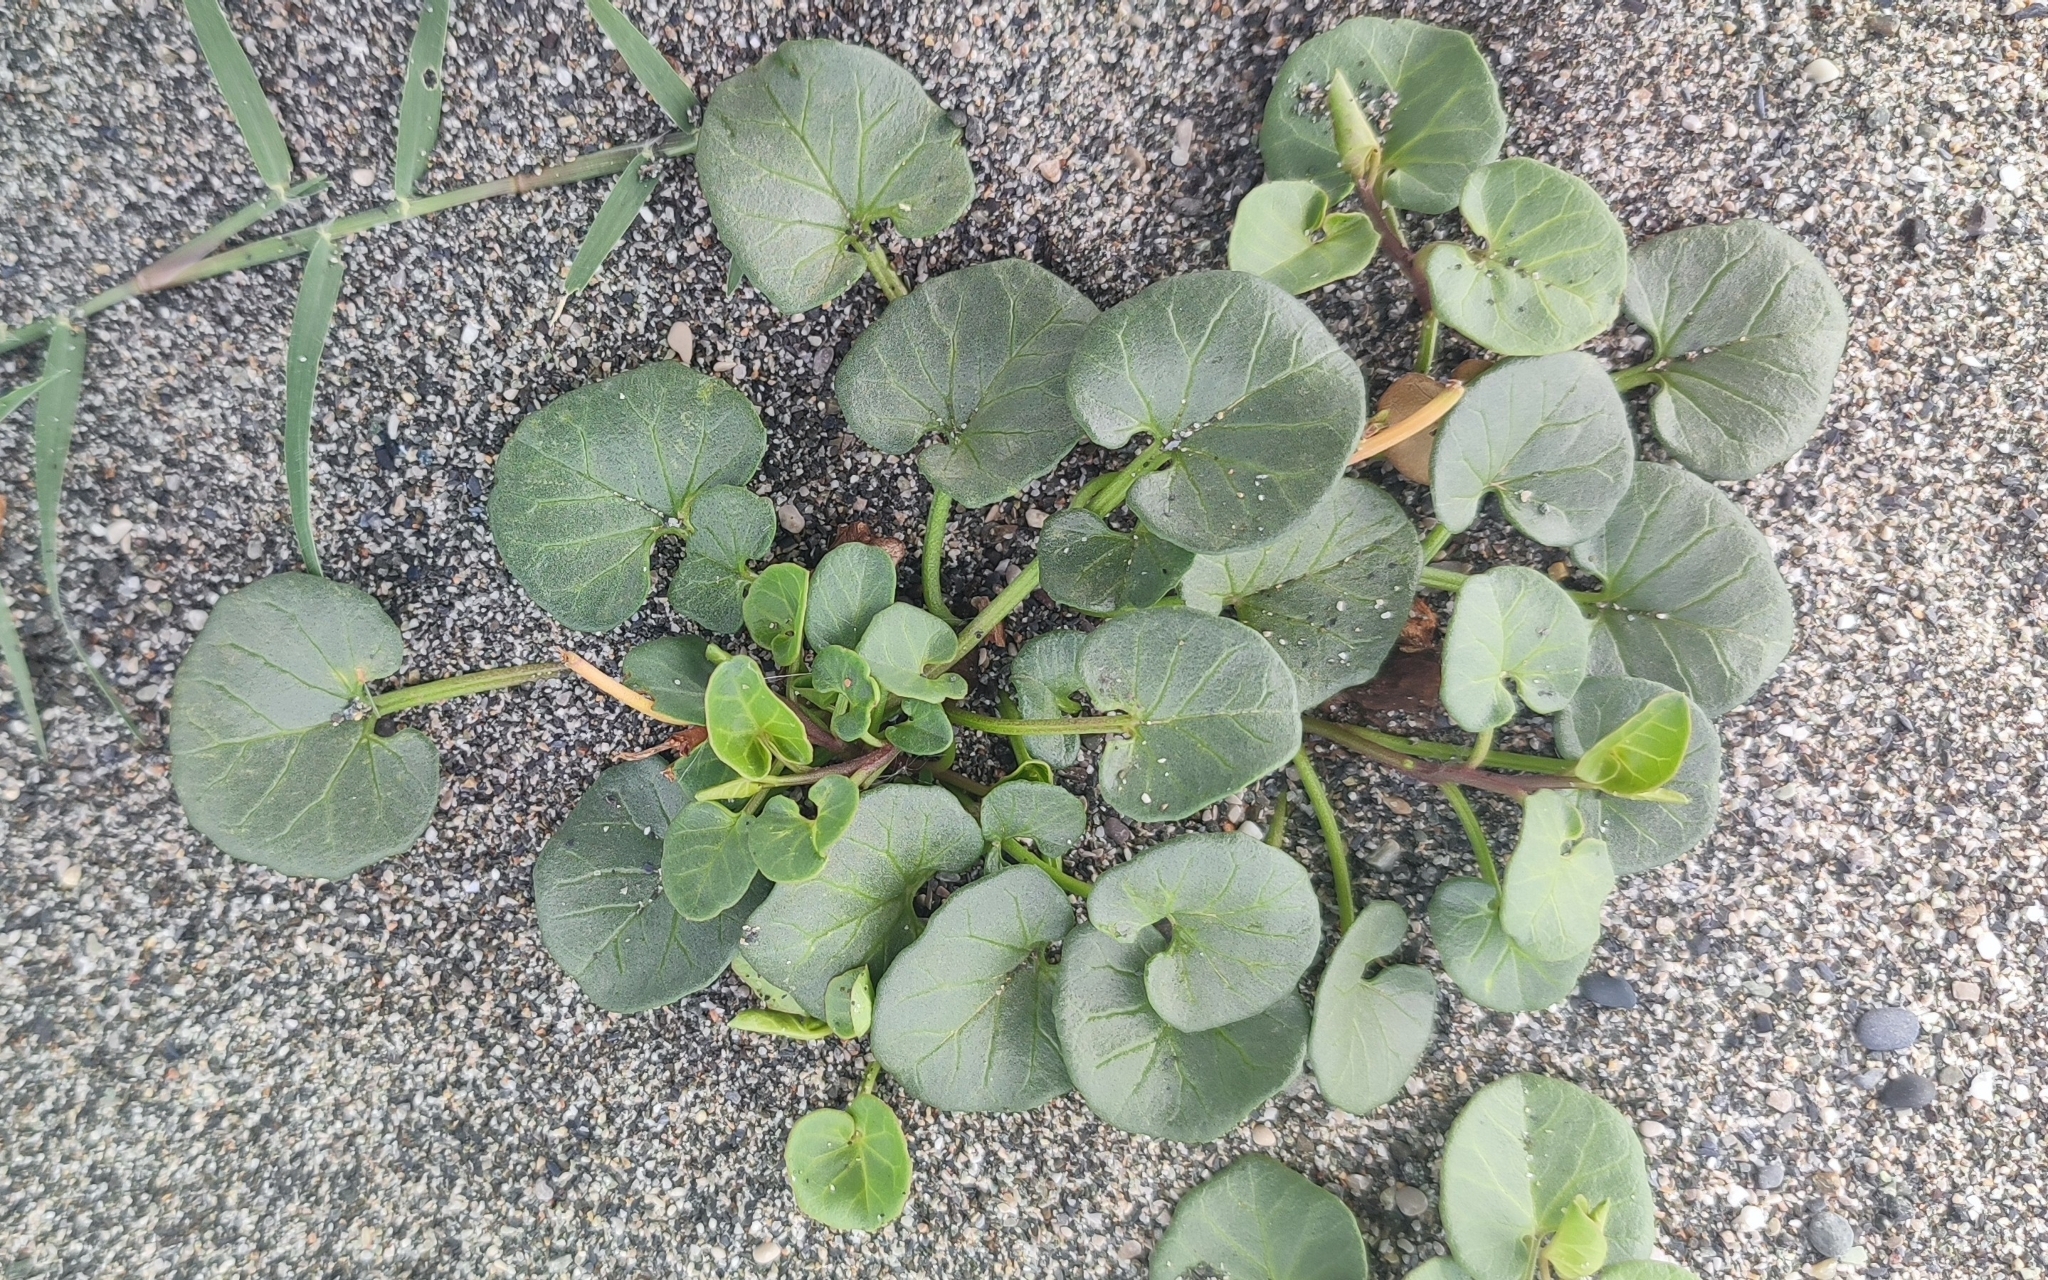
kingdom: Plantae
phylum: Tracheophyta
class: Magnoliopsida
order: Solanales
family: Convolvulaceae
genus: Calystegia
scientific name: Calystegia soldanella
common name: Sea bindweed
